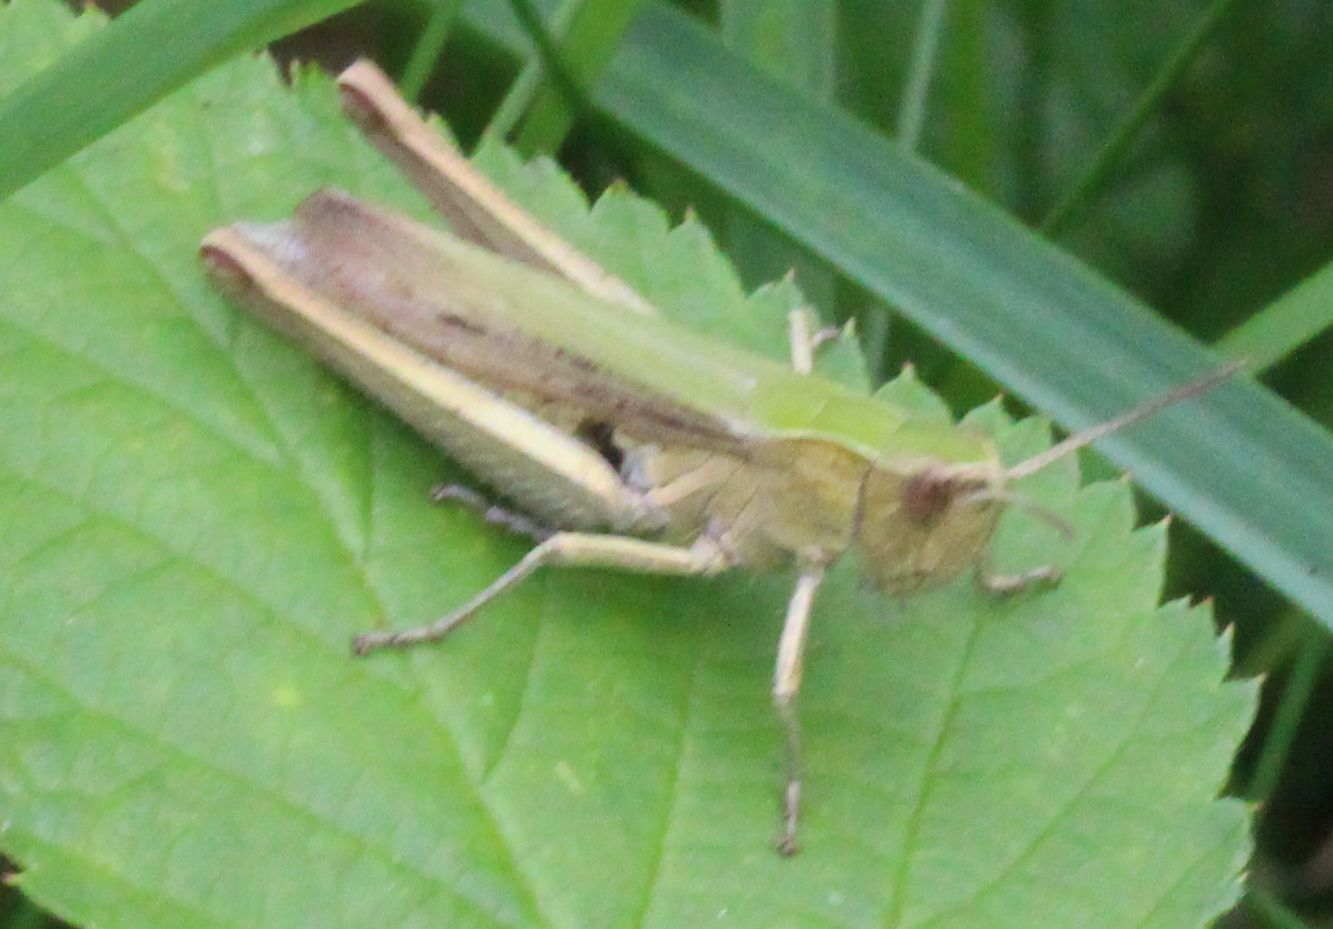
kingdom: Animalia
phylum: Arthropoda
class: Insecta
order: Orthoptera
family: Acrididae
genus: Chorthippus
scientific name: Chorthippus dorsatus
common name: Steppe grasshopper
